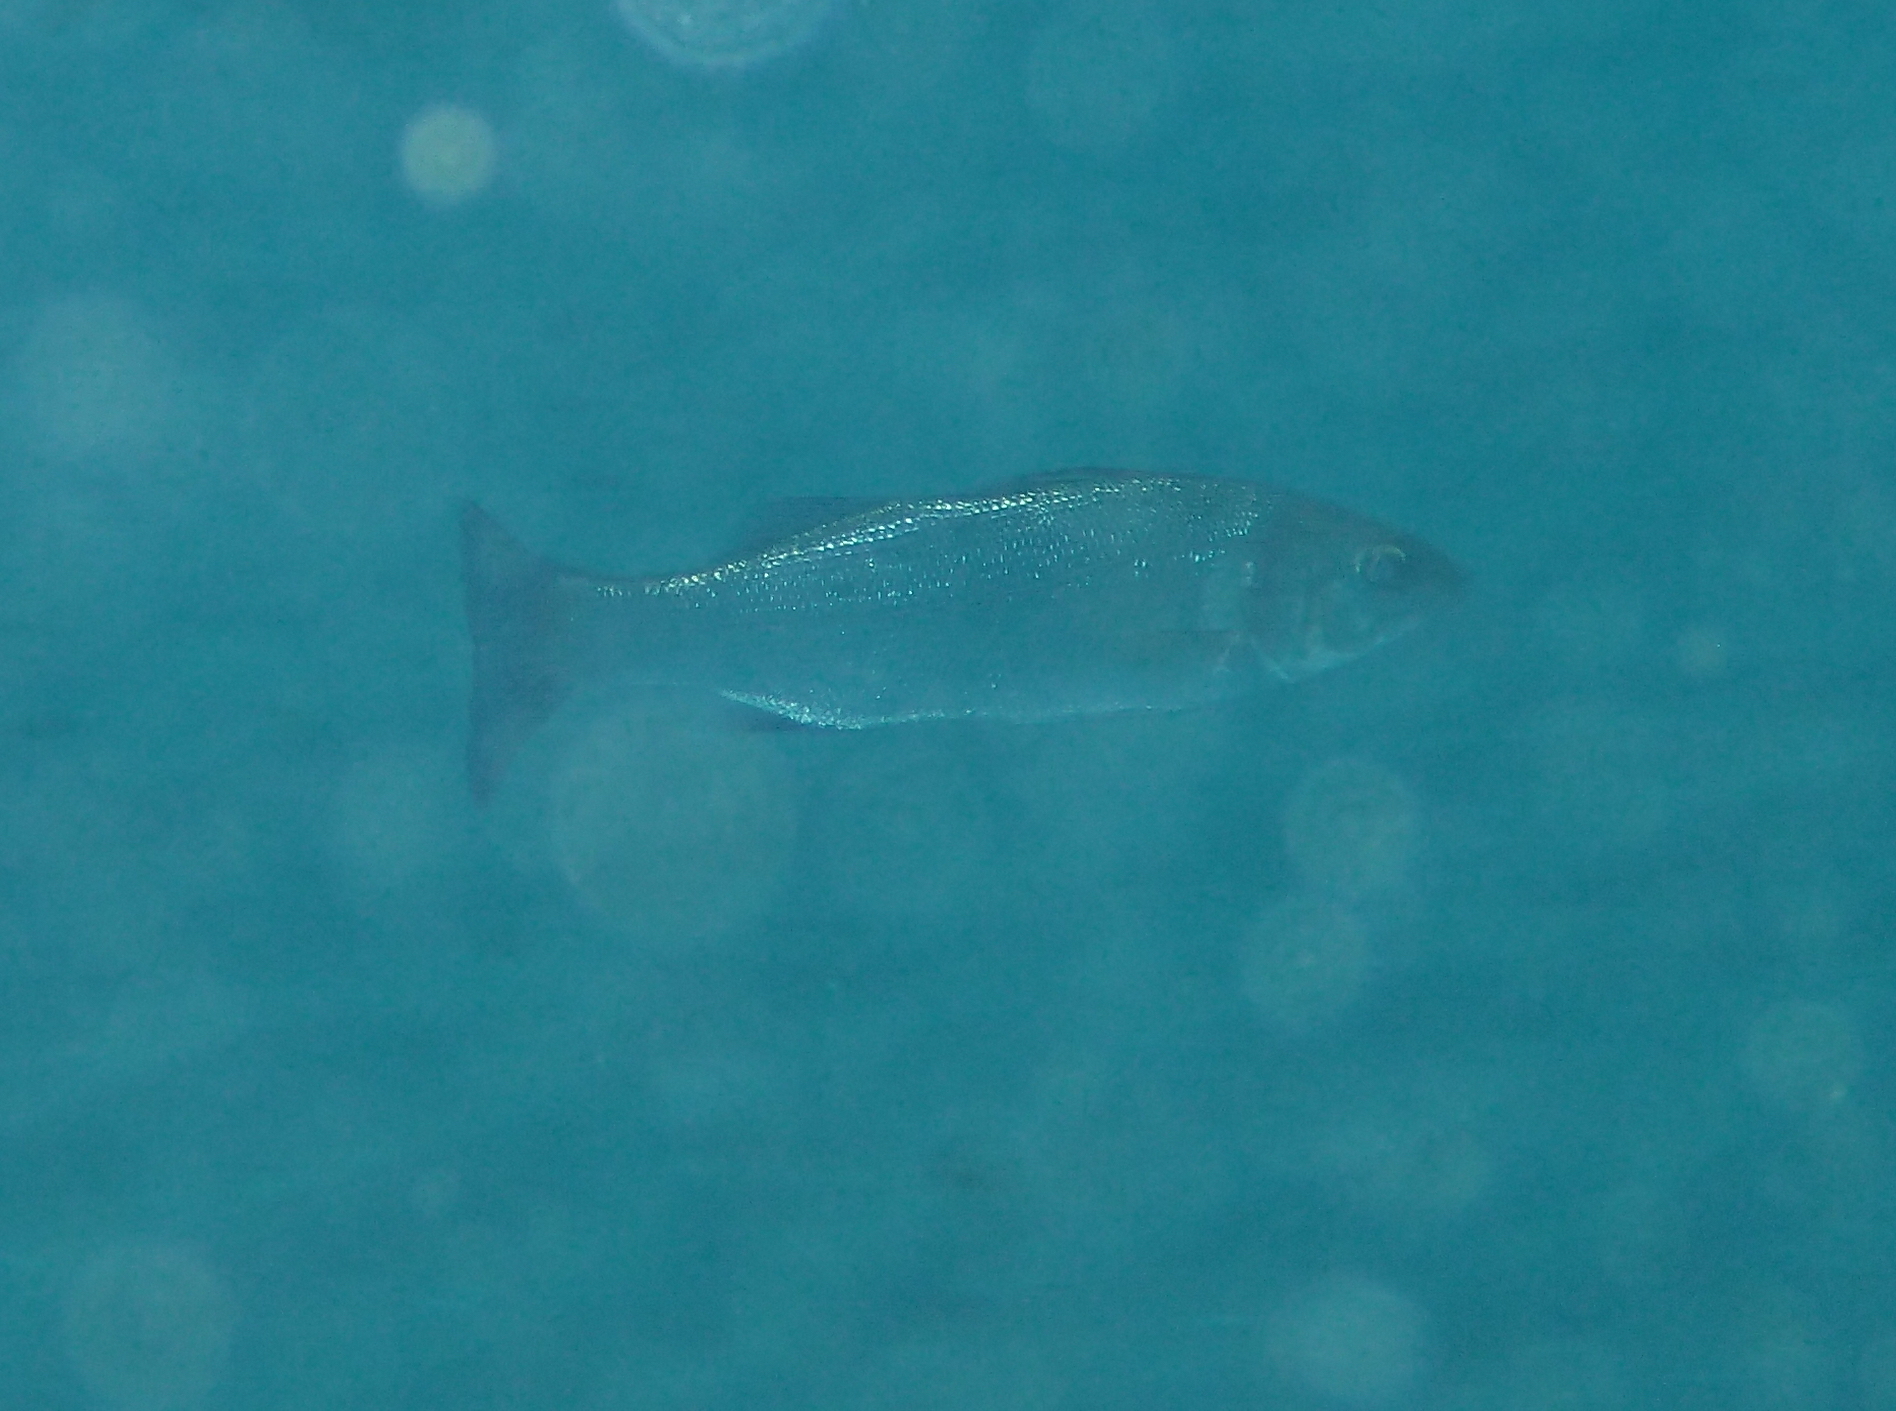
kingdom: Animalia
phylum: Chordata
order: Perciformes
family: Moronidae
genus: Dicentrarchus
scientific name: Dicentrarchus labrax
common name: European seabass
